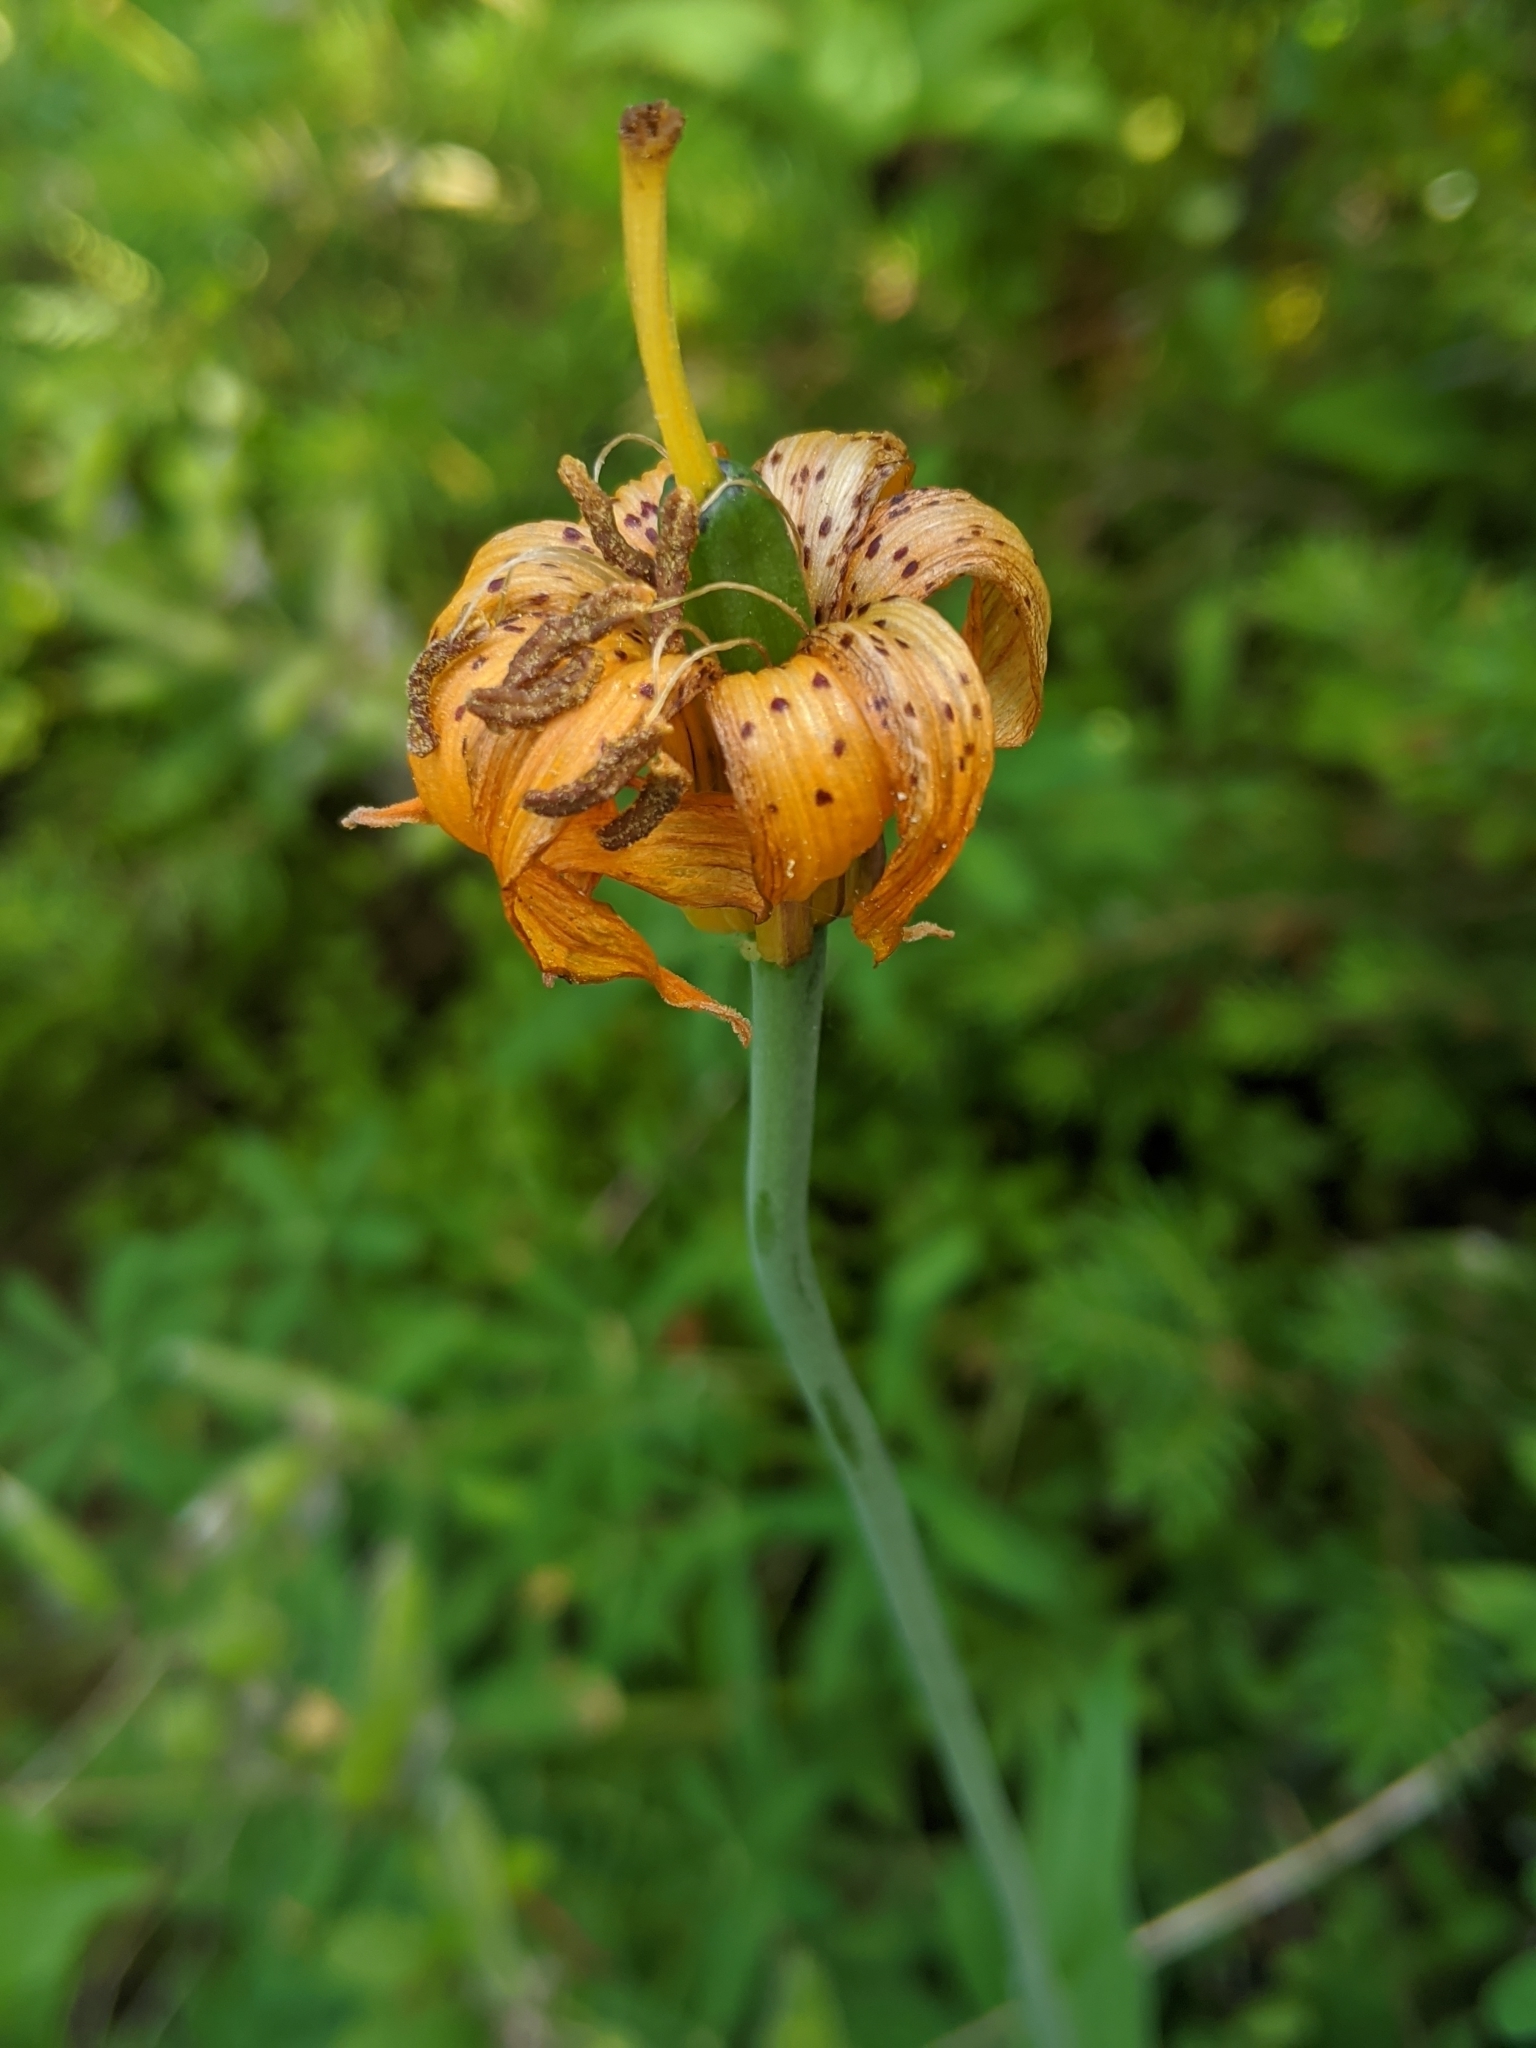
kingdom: Plantae
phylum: Tracheophyta
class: Liliopsida
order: Liliales
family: Liliaceae
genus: Lilium
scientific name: Lilium columbianum
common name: Columbia lily
